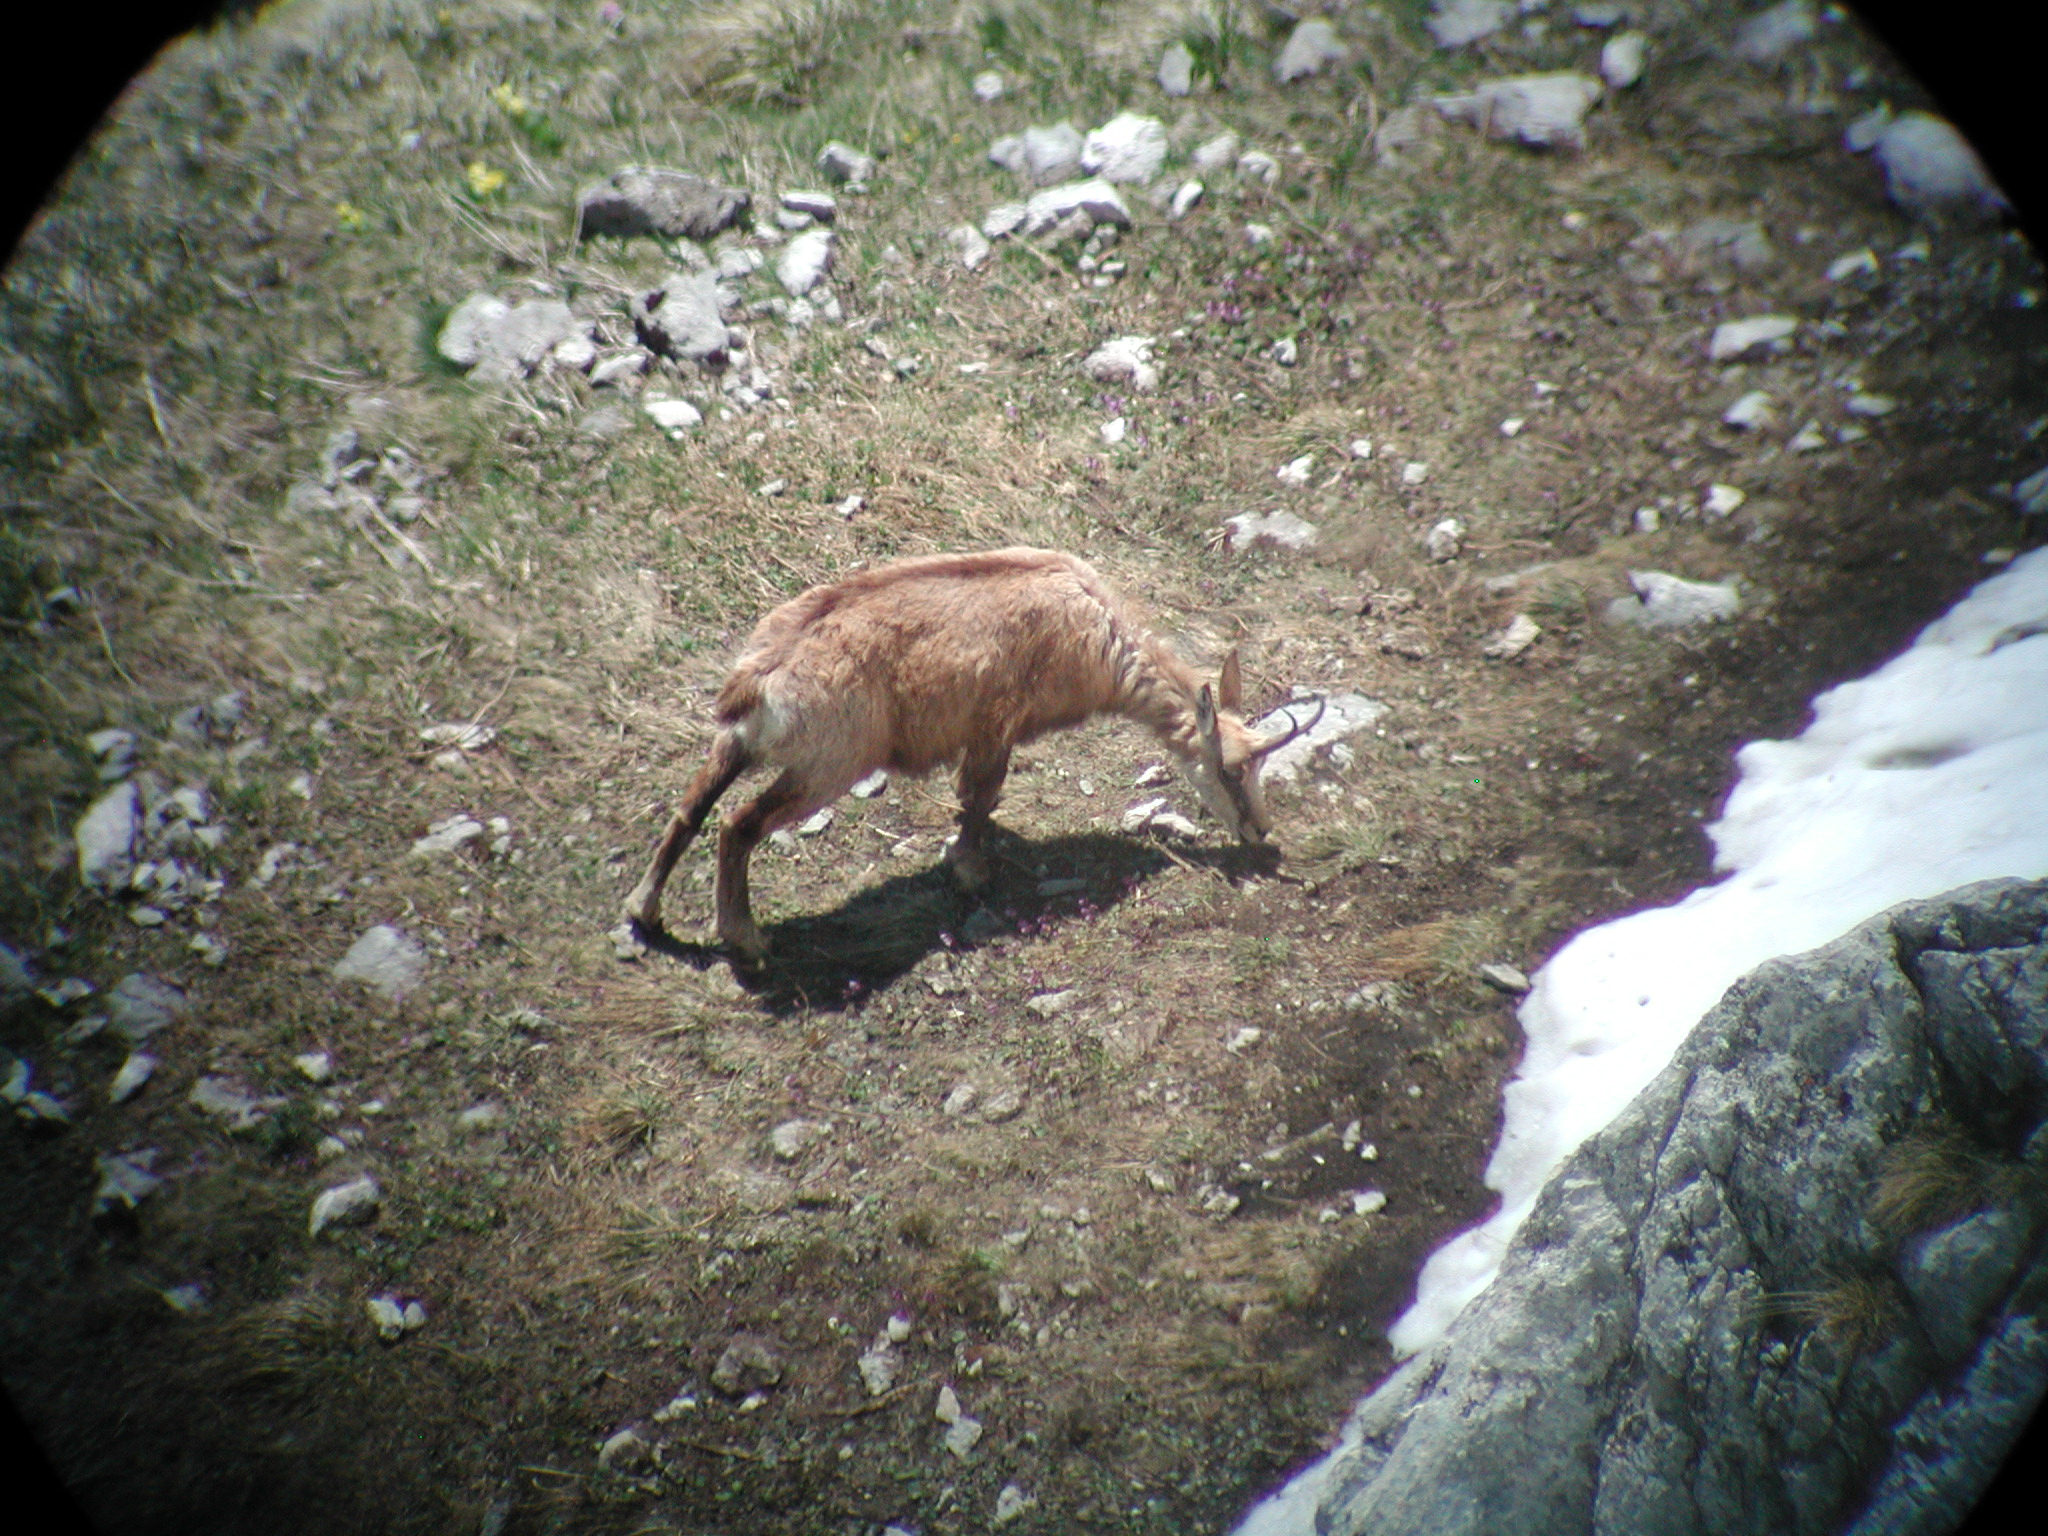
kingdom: Animalia
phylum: Chordata
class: Mammalia
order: Artiodactyla
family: Bovidae
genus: Rupicapra
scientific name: Rupicapra rupicapra
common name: Chamois
